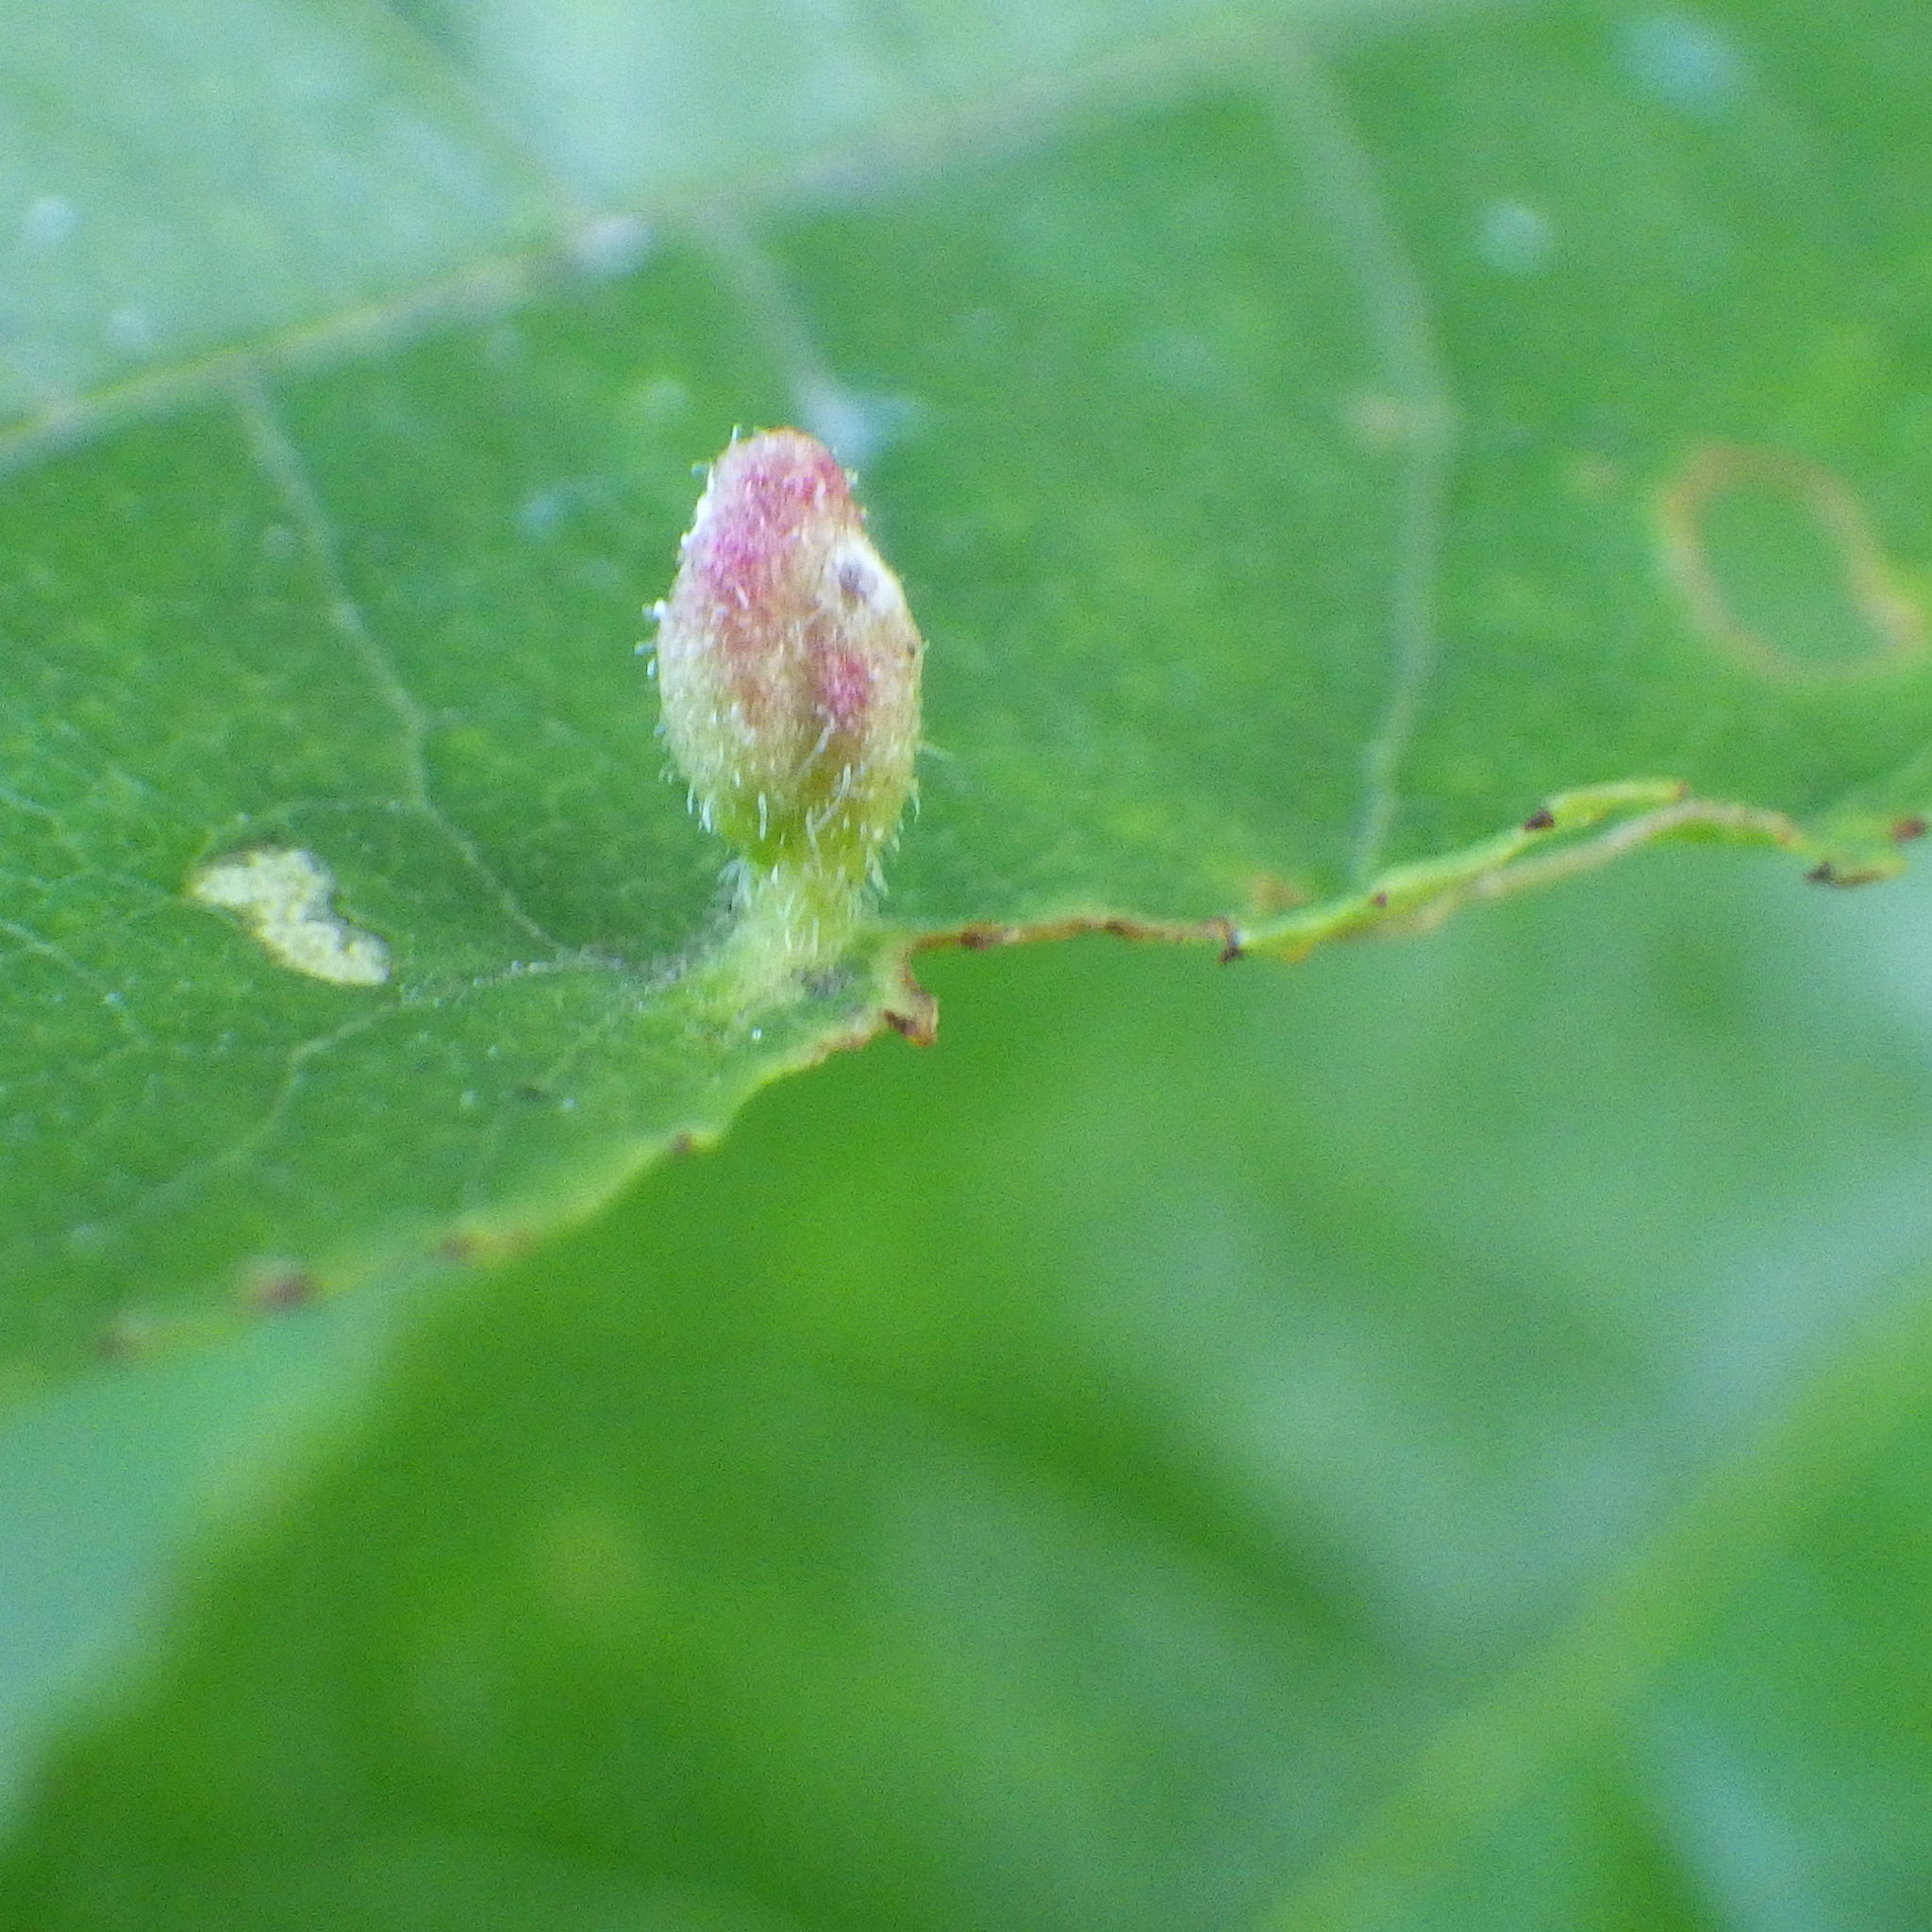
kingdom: Animalia
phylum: Arthropoda
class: Arachnida
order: Trombidiformes
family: Eriophyidae
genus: Eriophyes
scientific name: Eriophyes emarginatae
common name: Plum leaf gall mite
